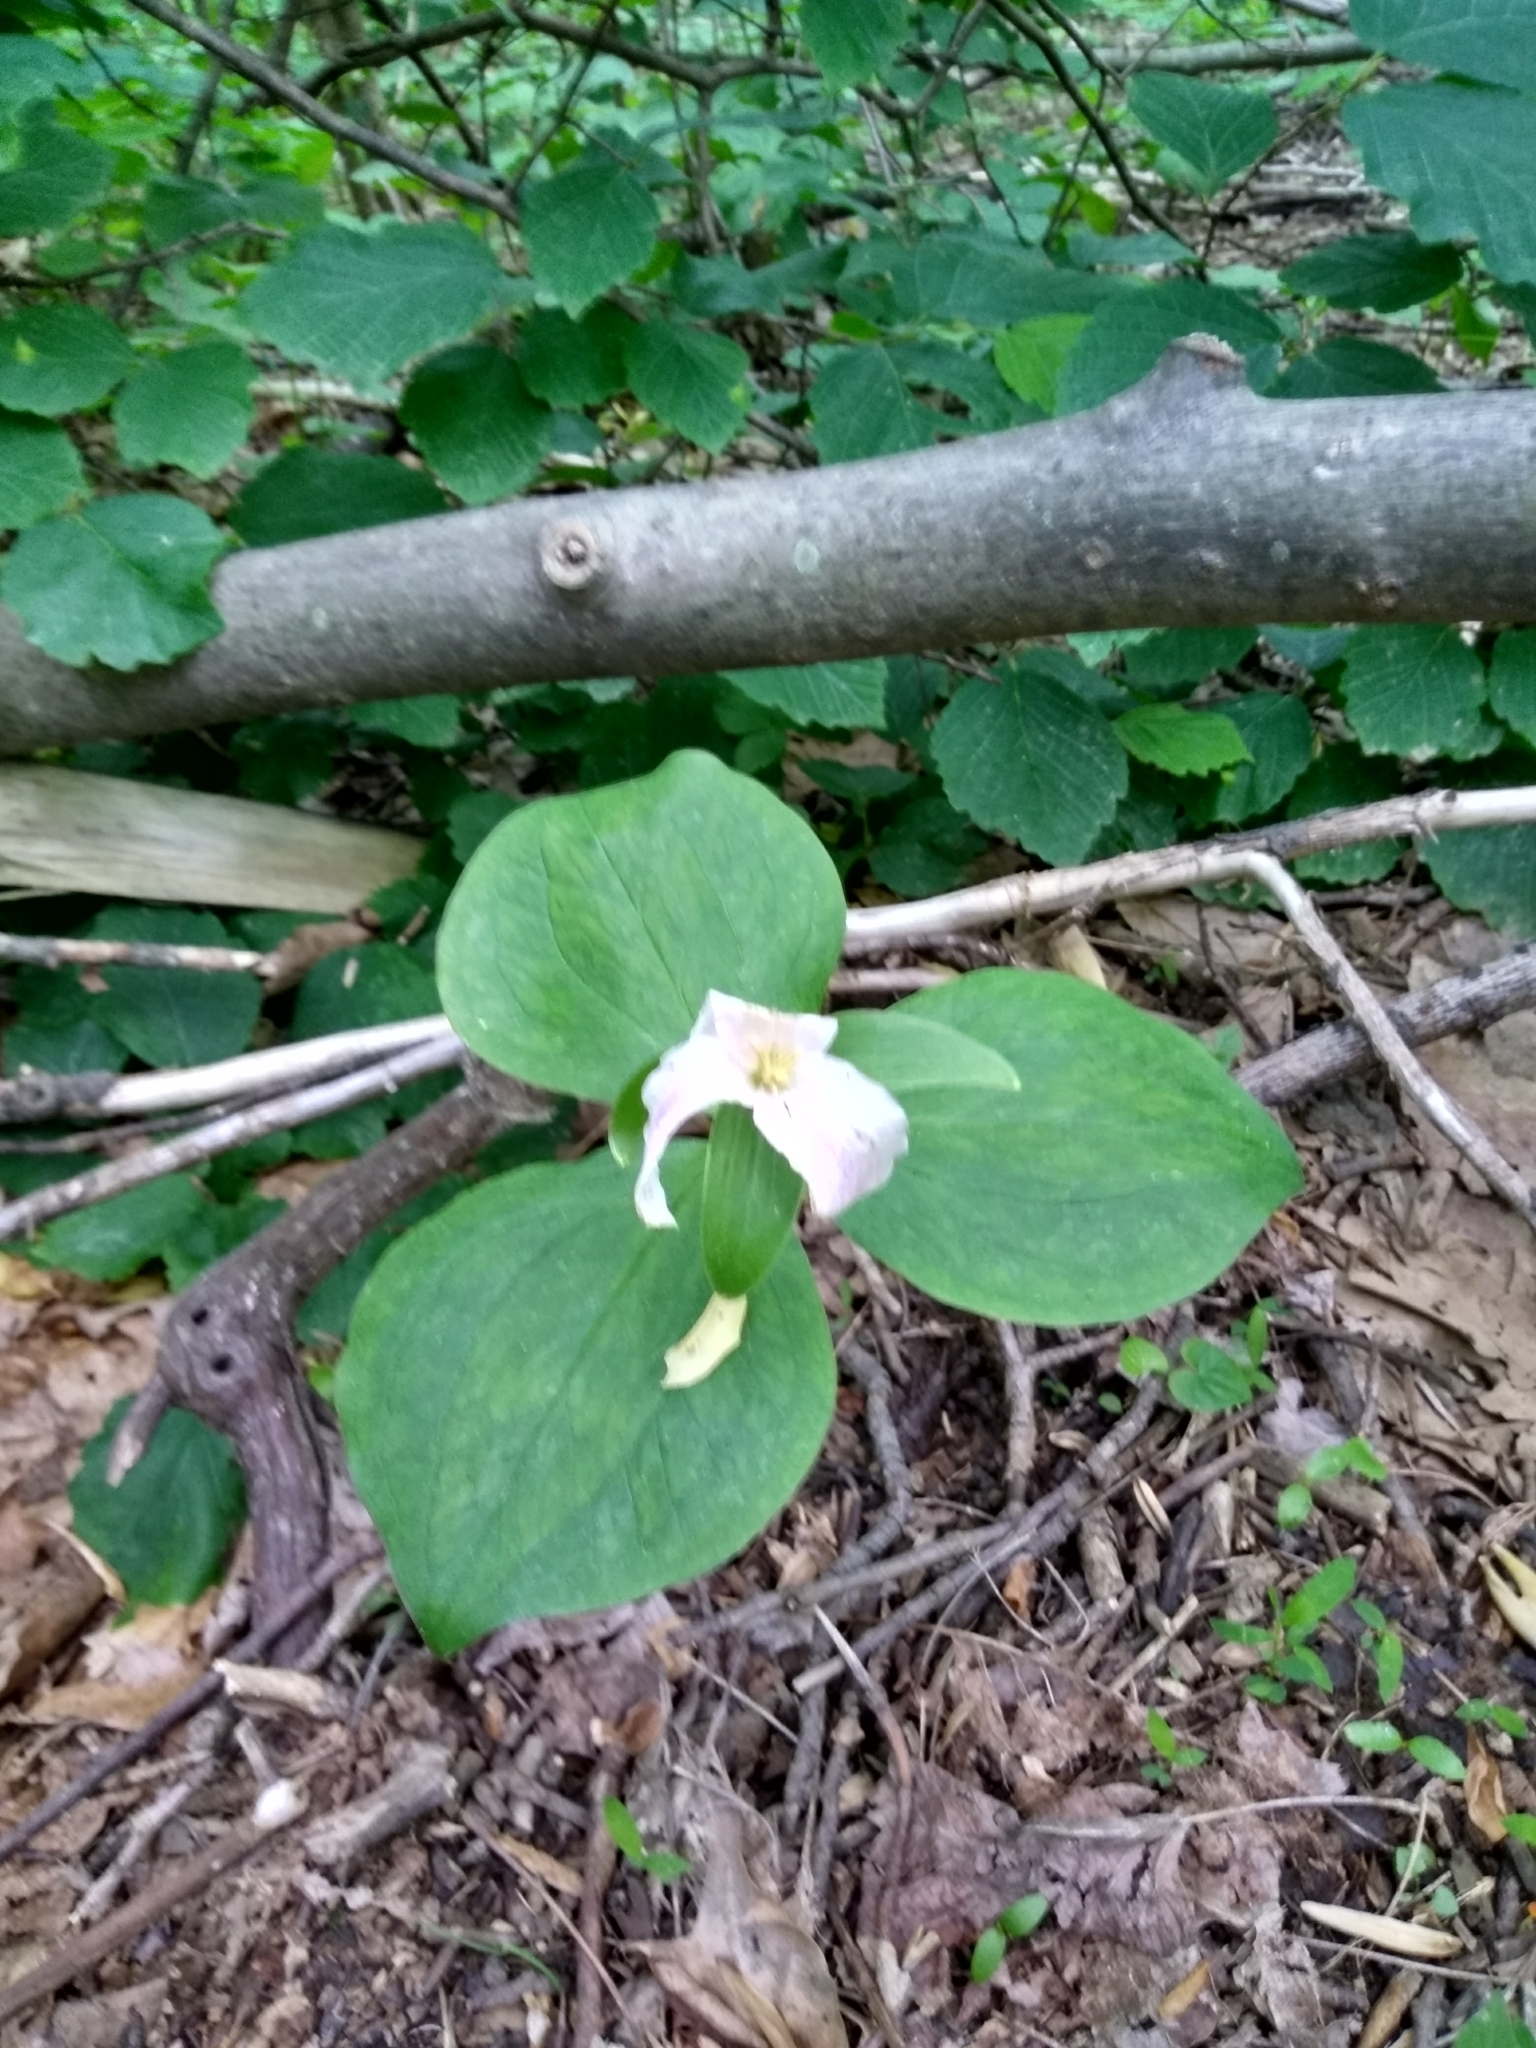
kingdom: Plantae
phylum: Tracheophyta
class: Liliopsida
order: Liliales
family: Melanthiaceae
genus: Trillium
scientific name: Trillium grandiflorum
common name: Great white trillium
